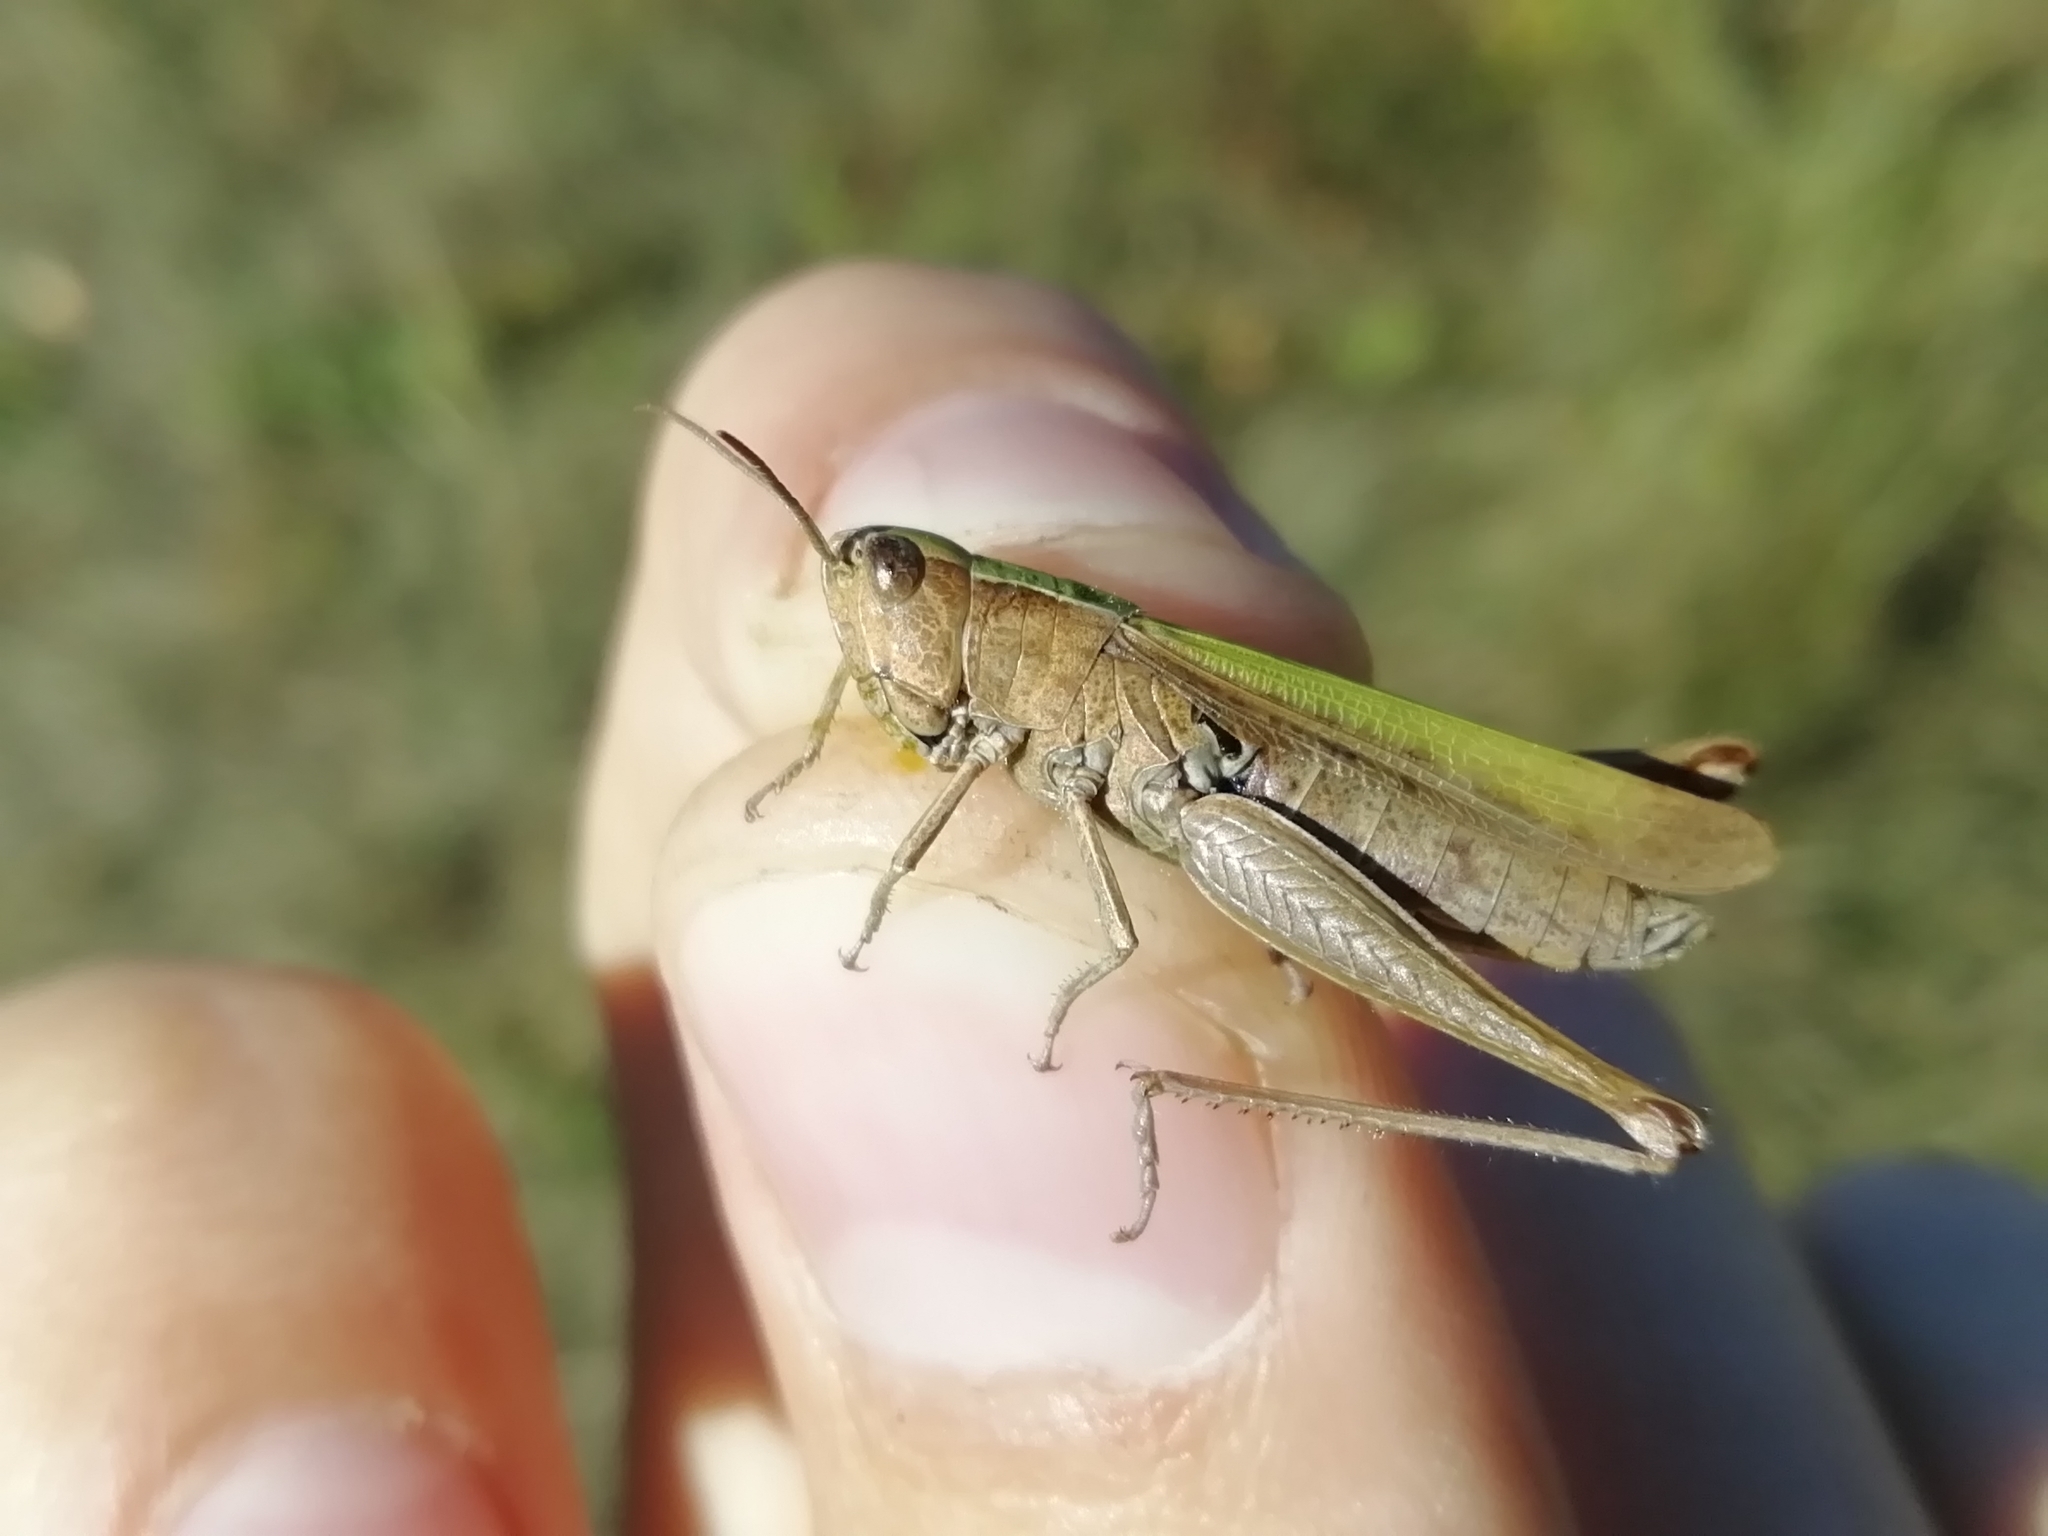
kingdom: Animalia
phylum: Arthropoda
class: Insecta
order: Orthoptera
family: Acrididae
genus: Chorthippus
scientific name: Chorthippus dorsatus
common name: Steppe grasshopper
